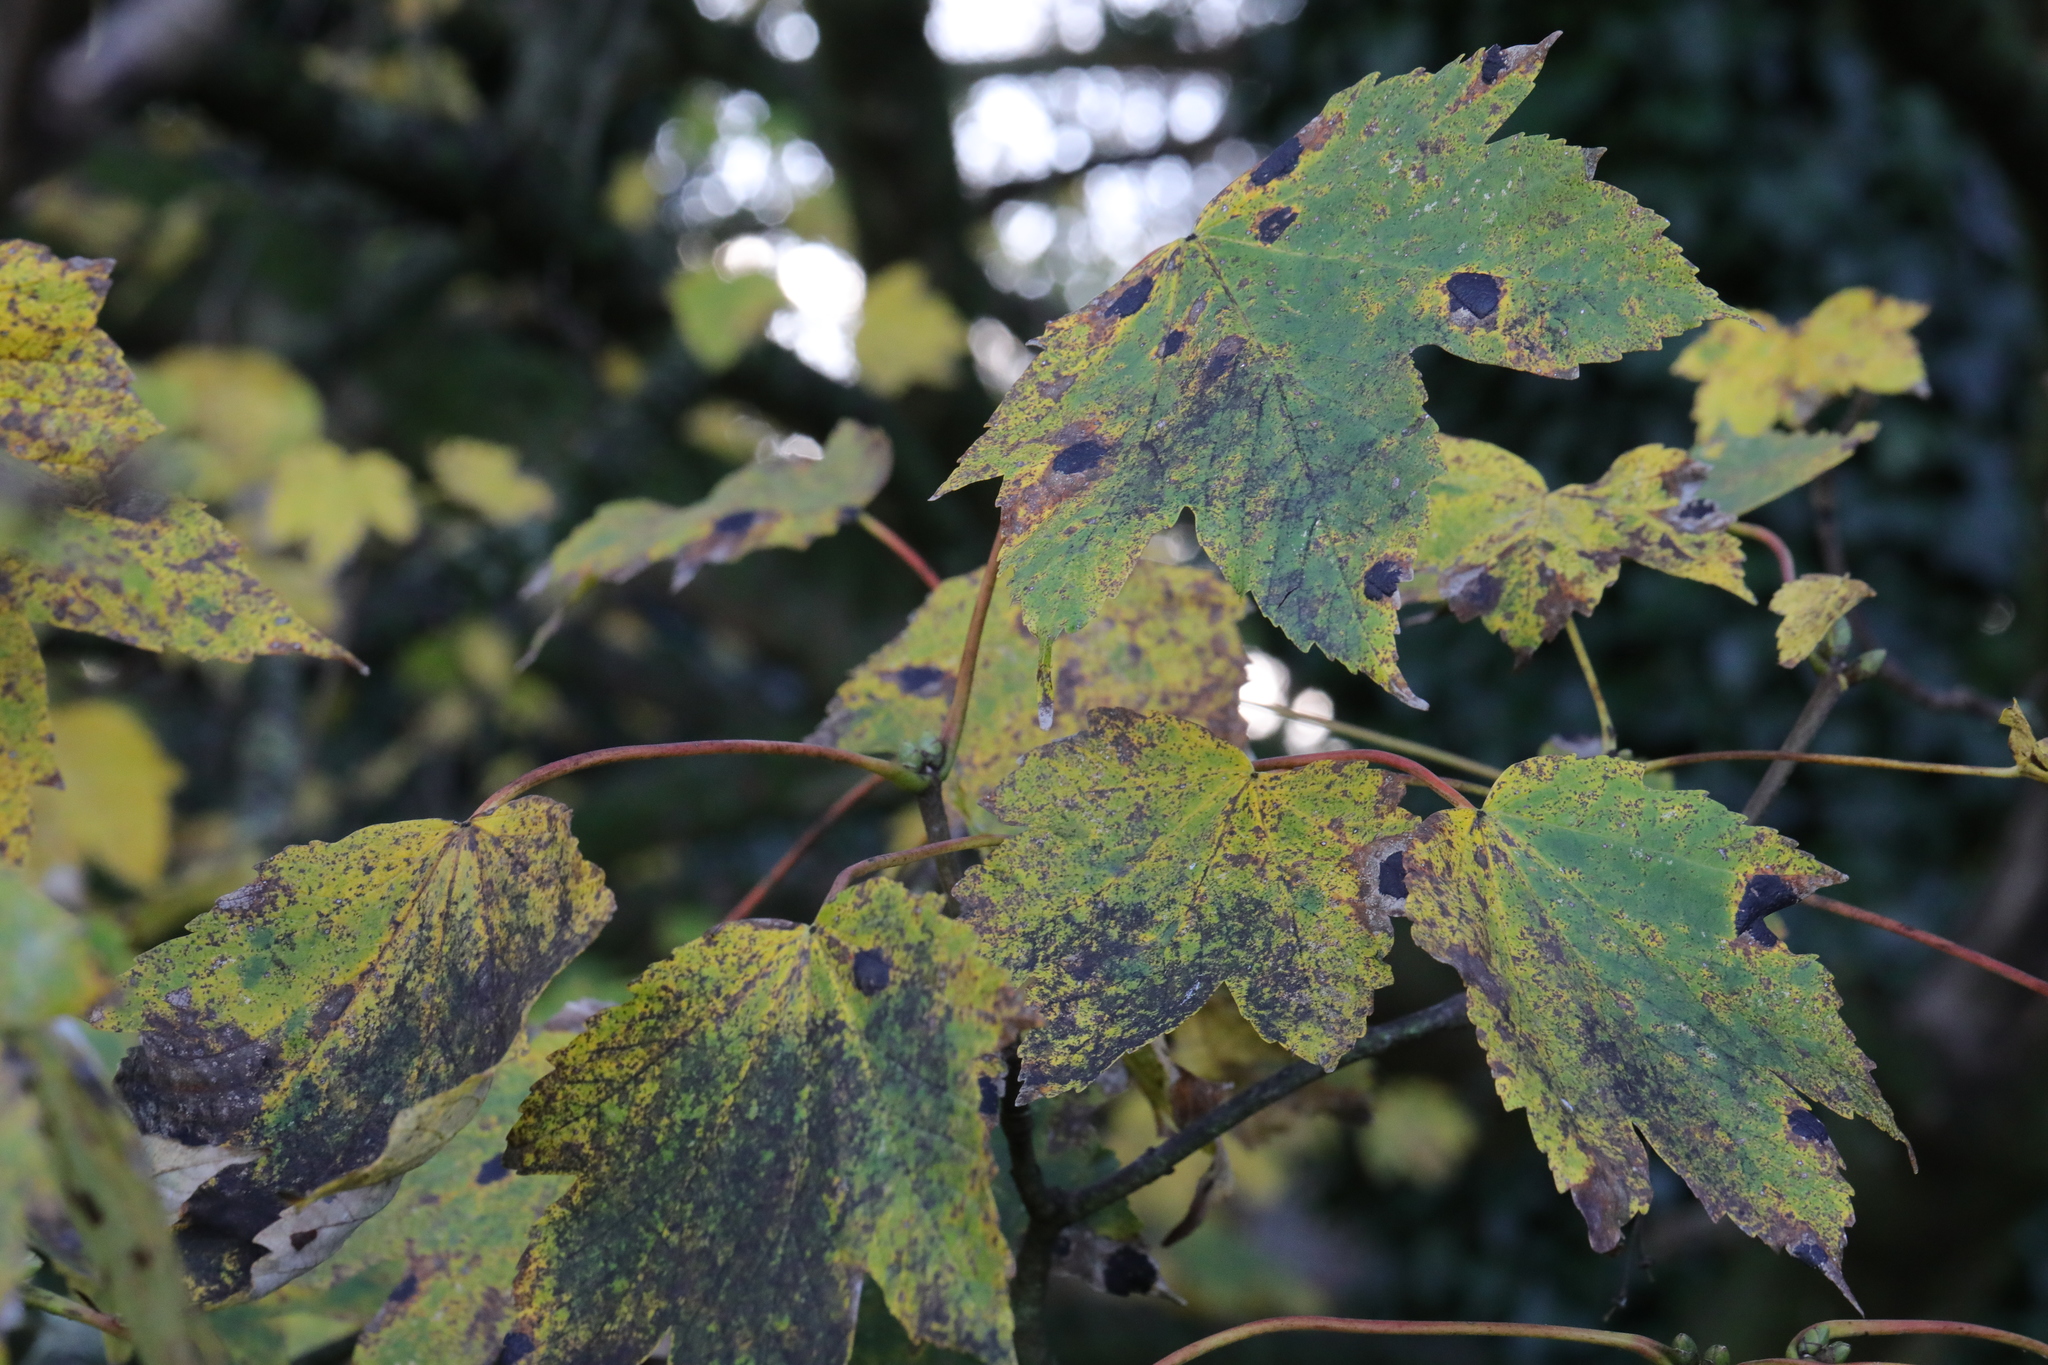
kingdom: Fungi
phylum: Ascomycota
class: Leotiomycetes
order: Rhytismatales
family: Rhytismataceae
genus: Rhytisma
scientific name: Rhytisma acerinum
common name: European tar spot
